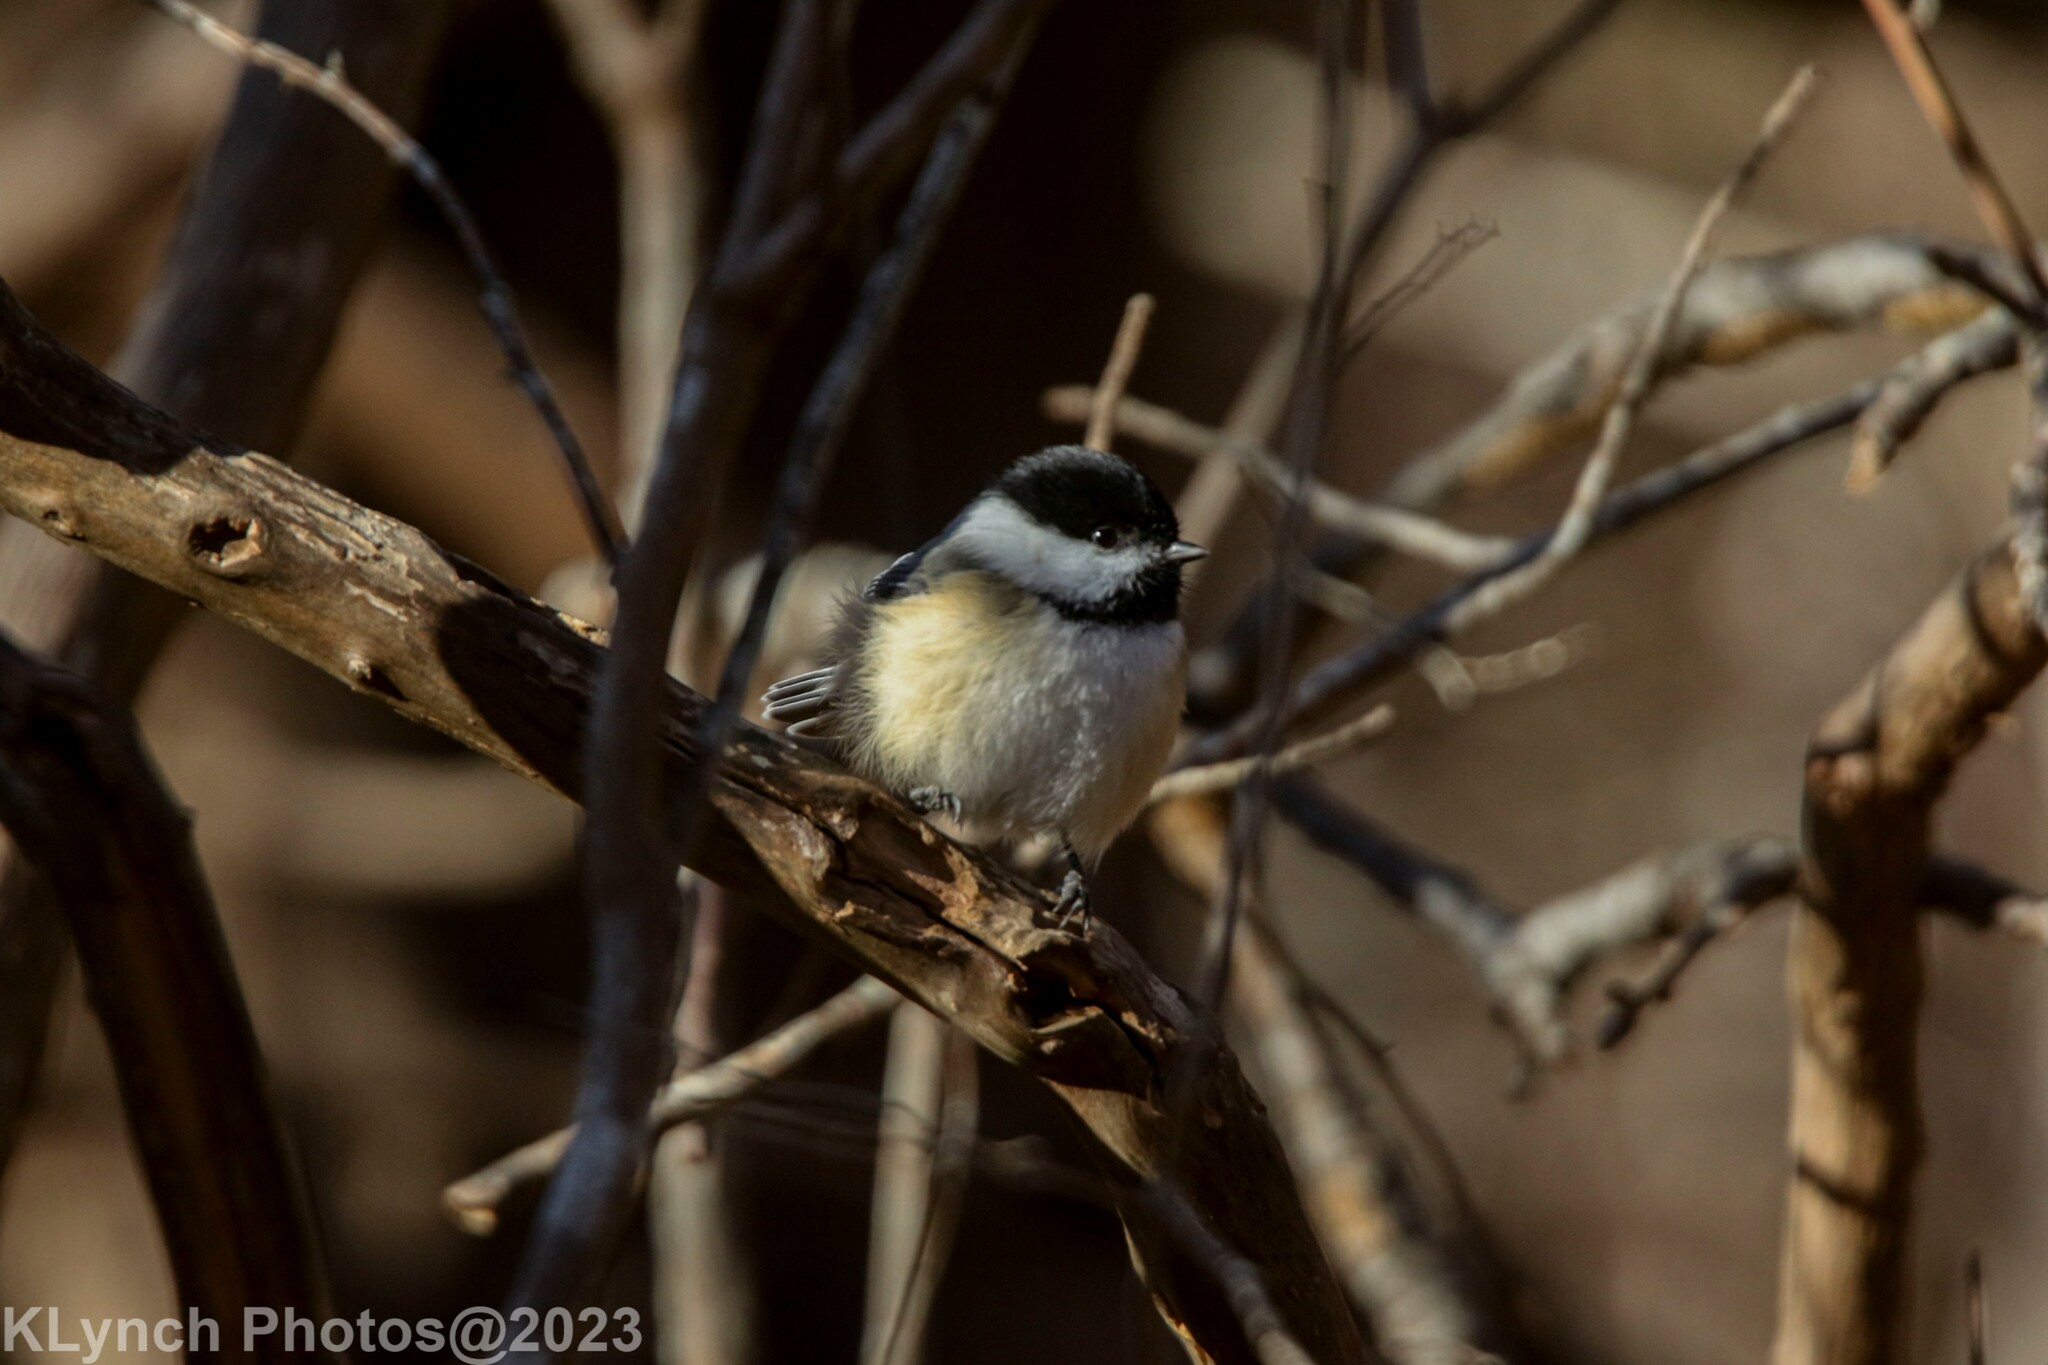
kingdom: Animalia
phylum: Chordata
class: Aves
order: Passeriformes
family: Paridae
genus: Poecile
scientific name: Poecile atricapillus
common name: Black-capped chickadee
